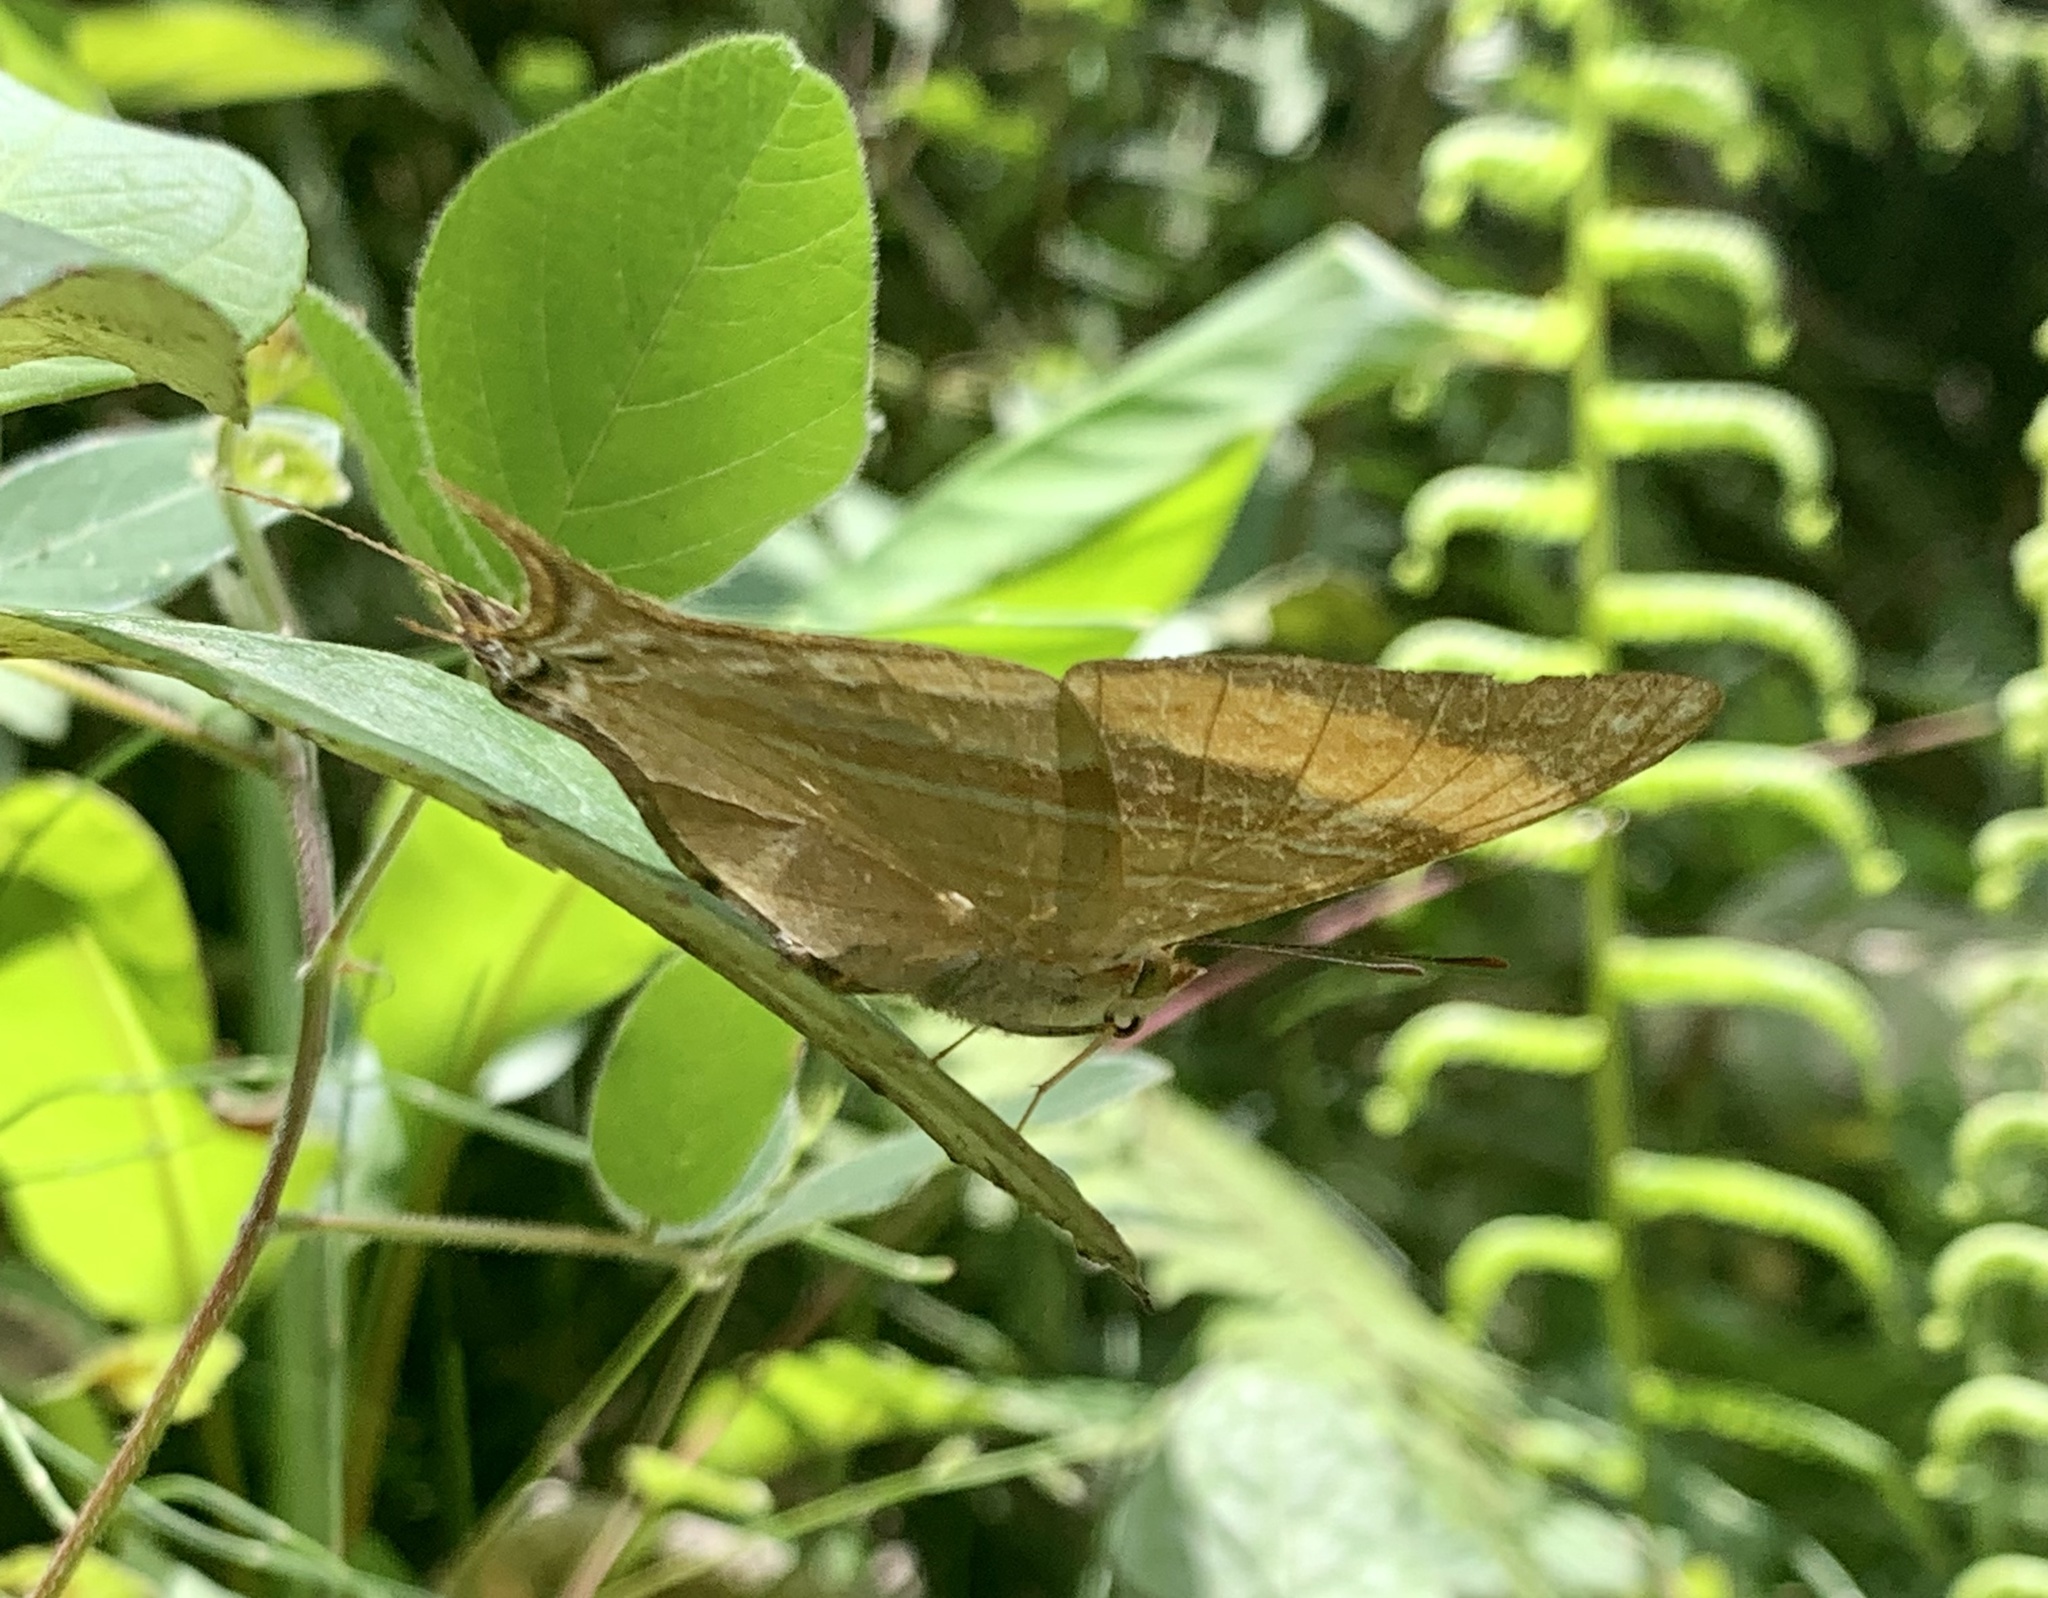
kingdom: Animalia
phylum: Arthropoda
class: Insecta
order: Lepidoptera
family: Nymphalidae
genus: Marpesia
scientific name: Marpesia corinna
